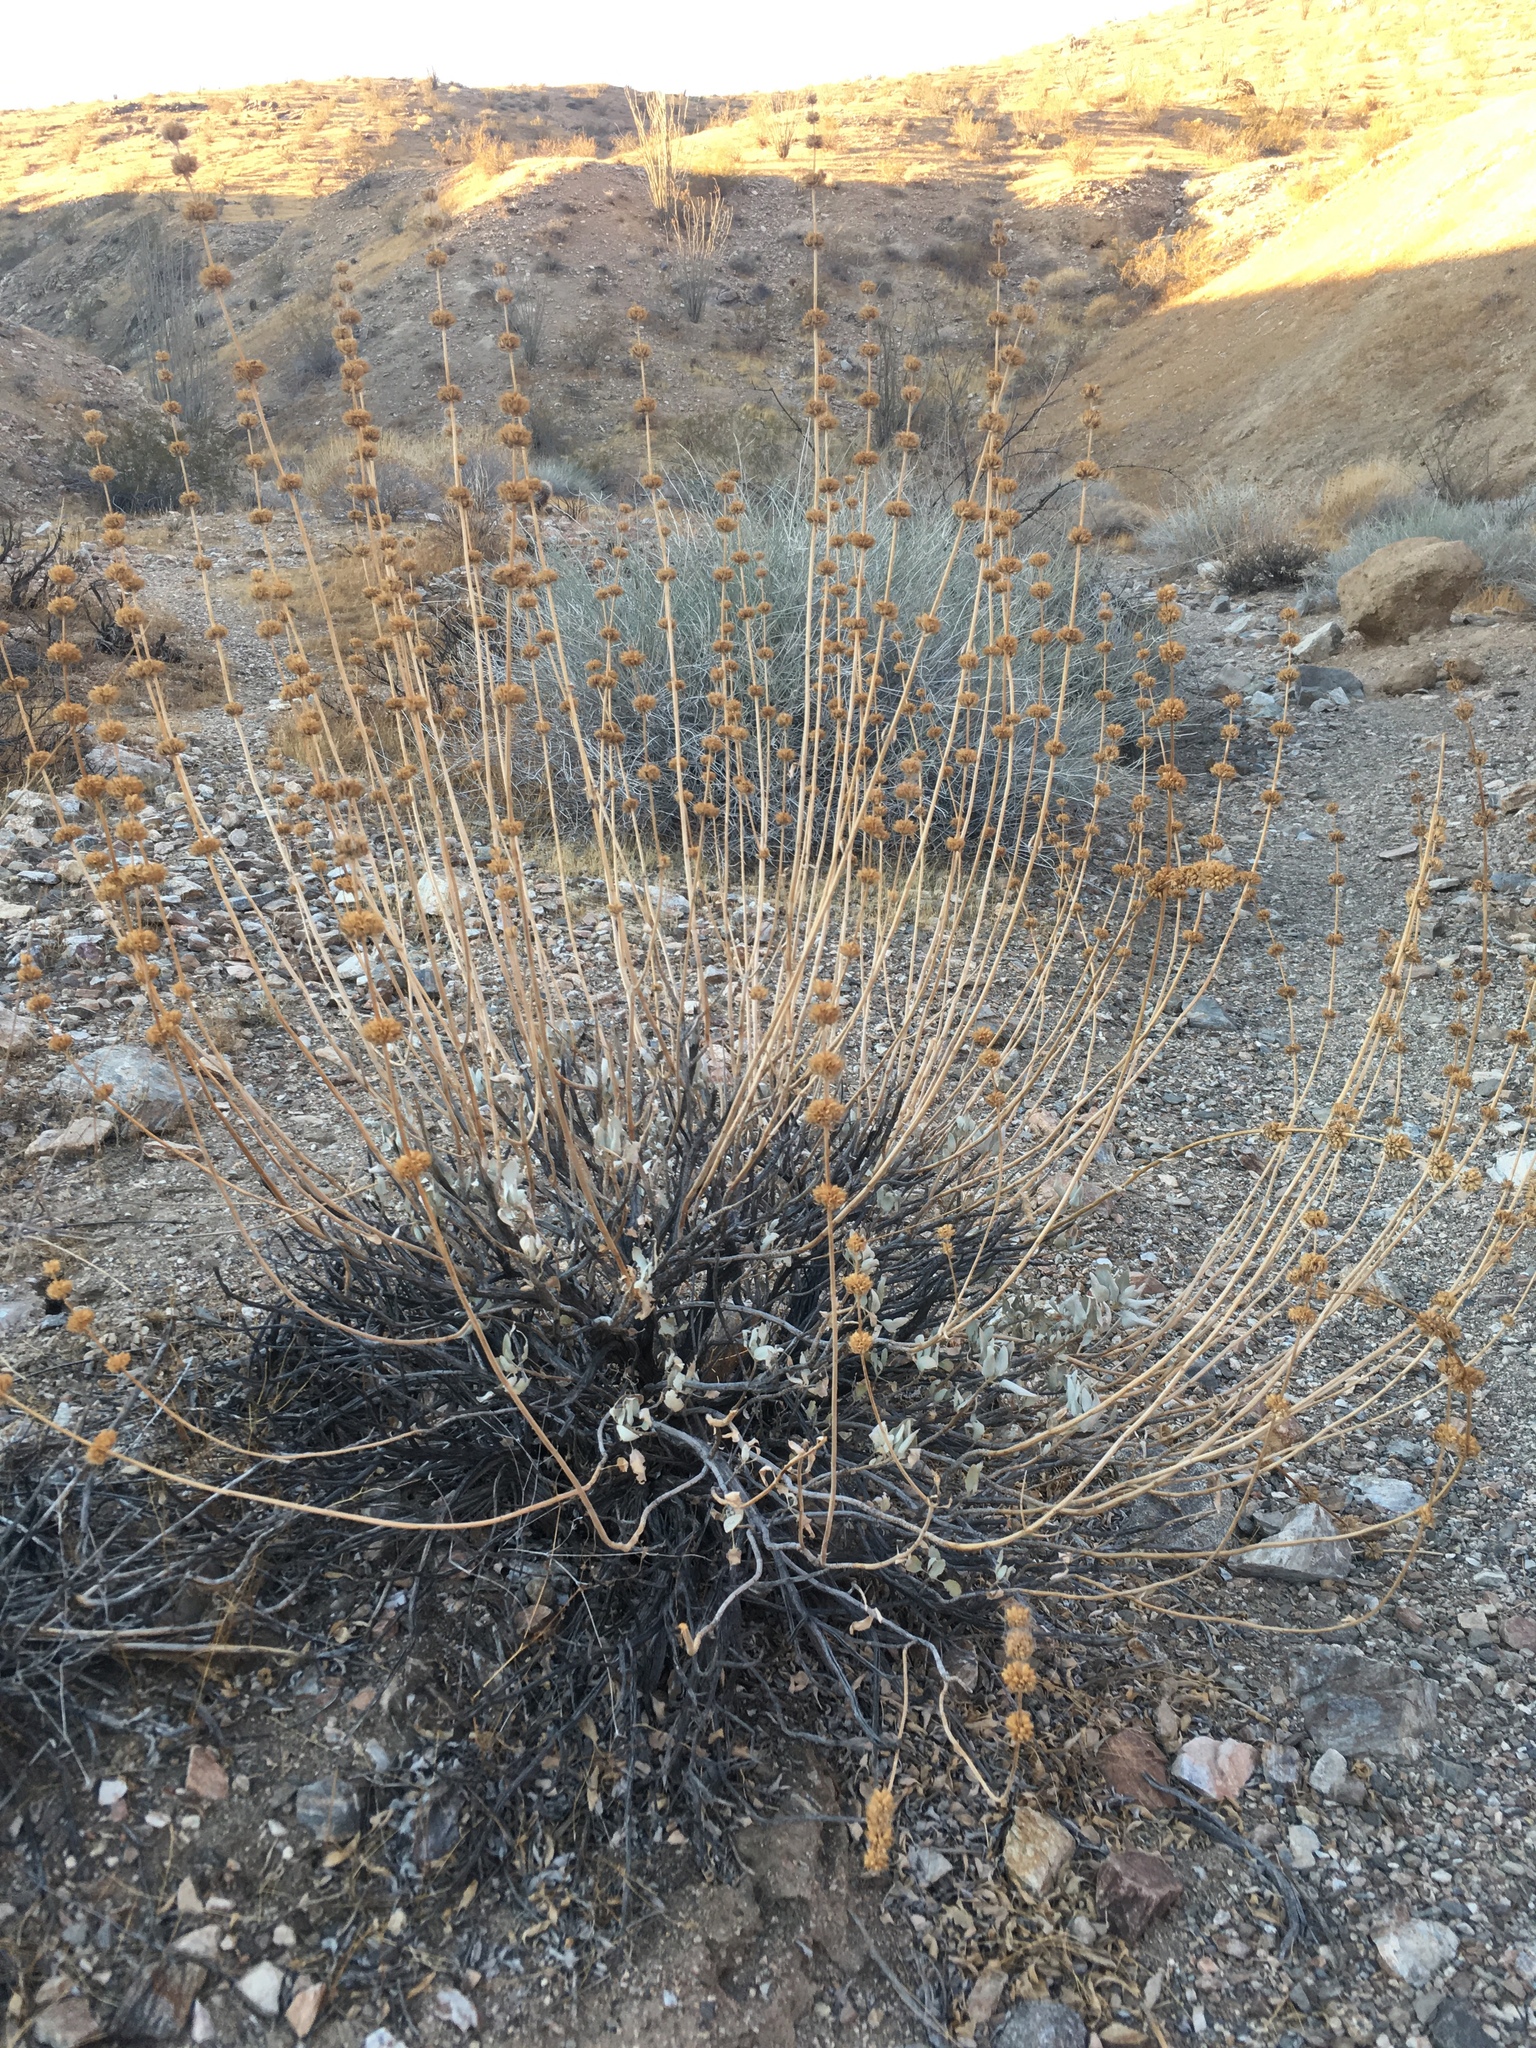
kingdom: Plantae
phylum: Tracheophyta
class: Magnoliopsida
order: Lamiales
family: Lamiaceae
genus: Salvia
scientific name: Salvia vaseyi
